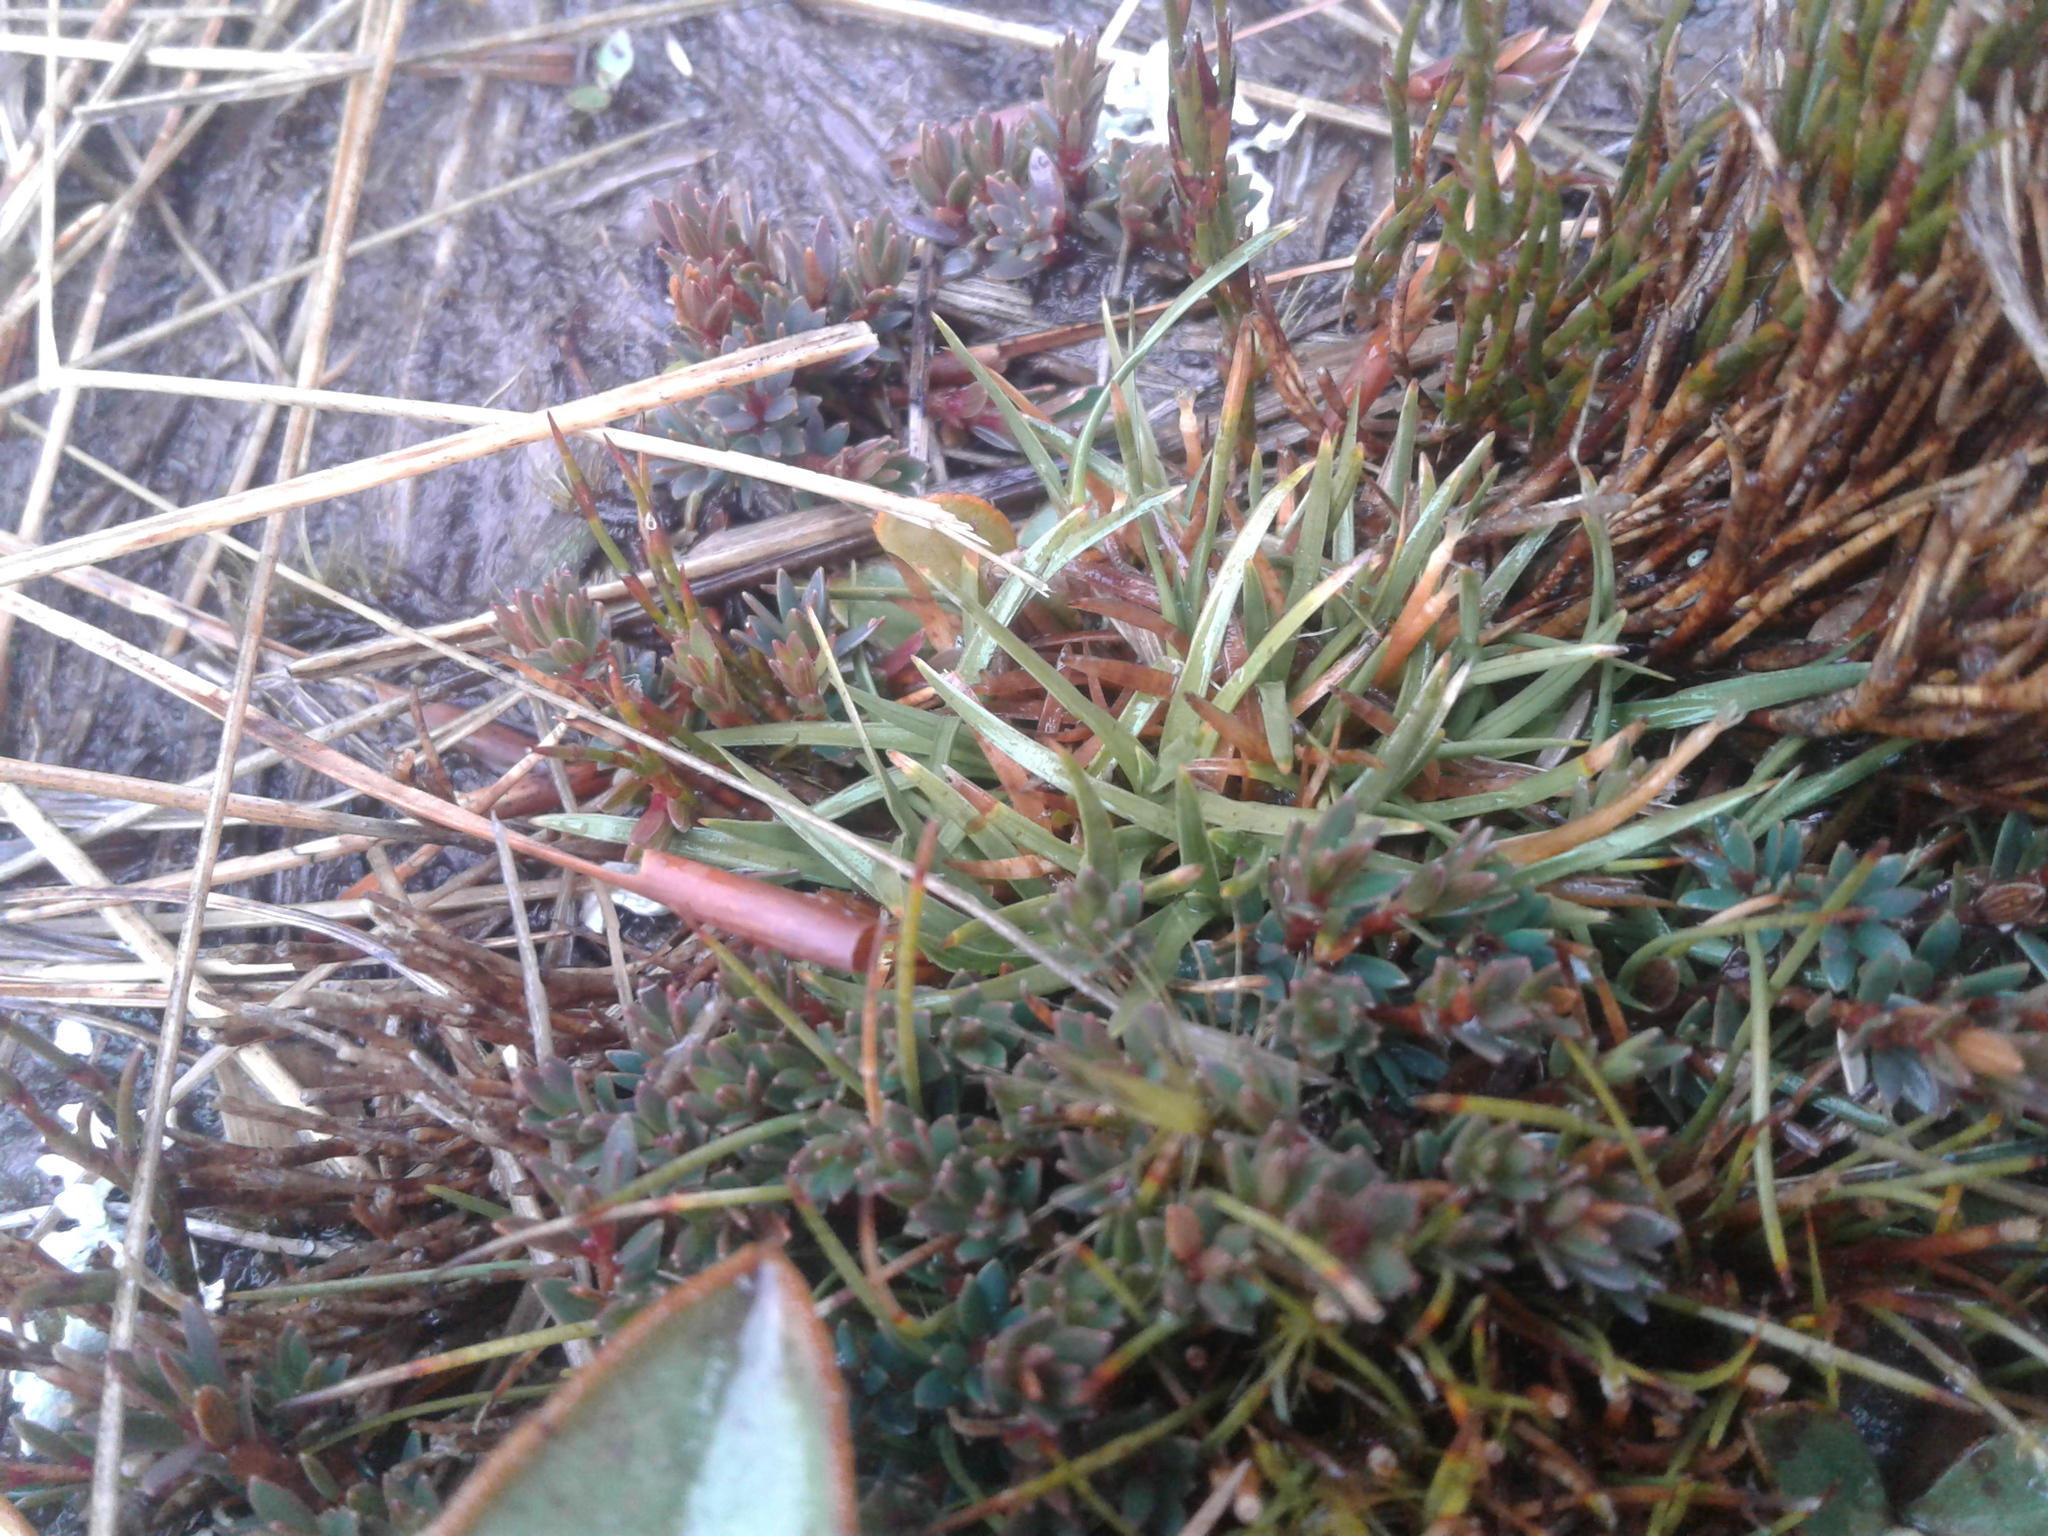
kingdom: Plantae
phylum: Tracheophyta
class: Liliopsida
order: Poales
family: Cyperaceae
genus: Oreobolus
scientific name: Oreobolus impar
